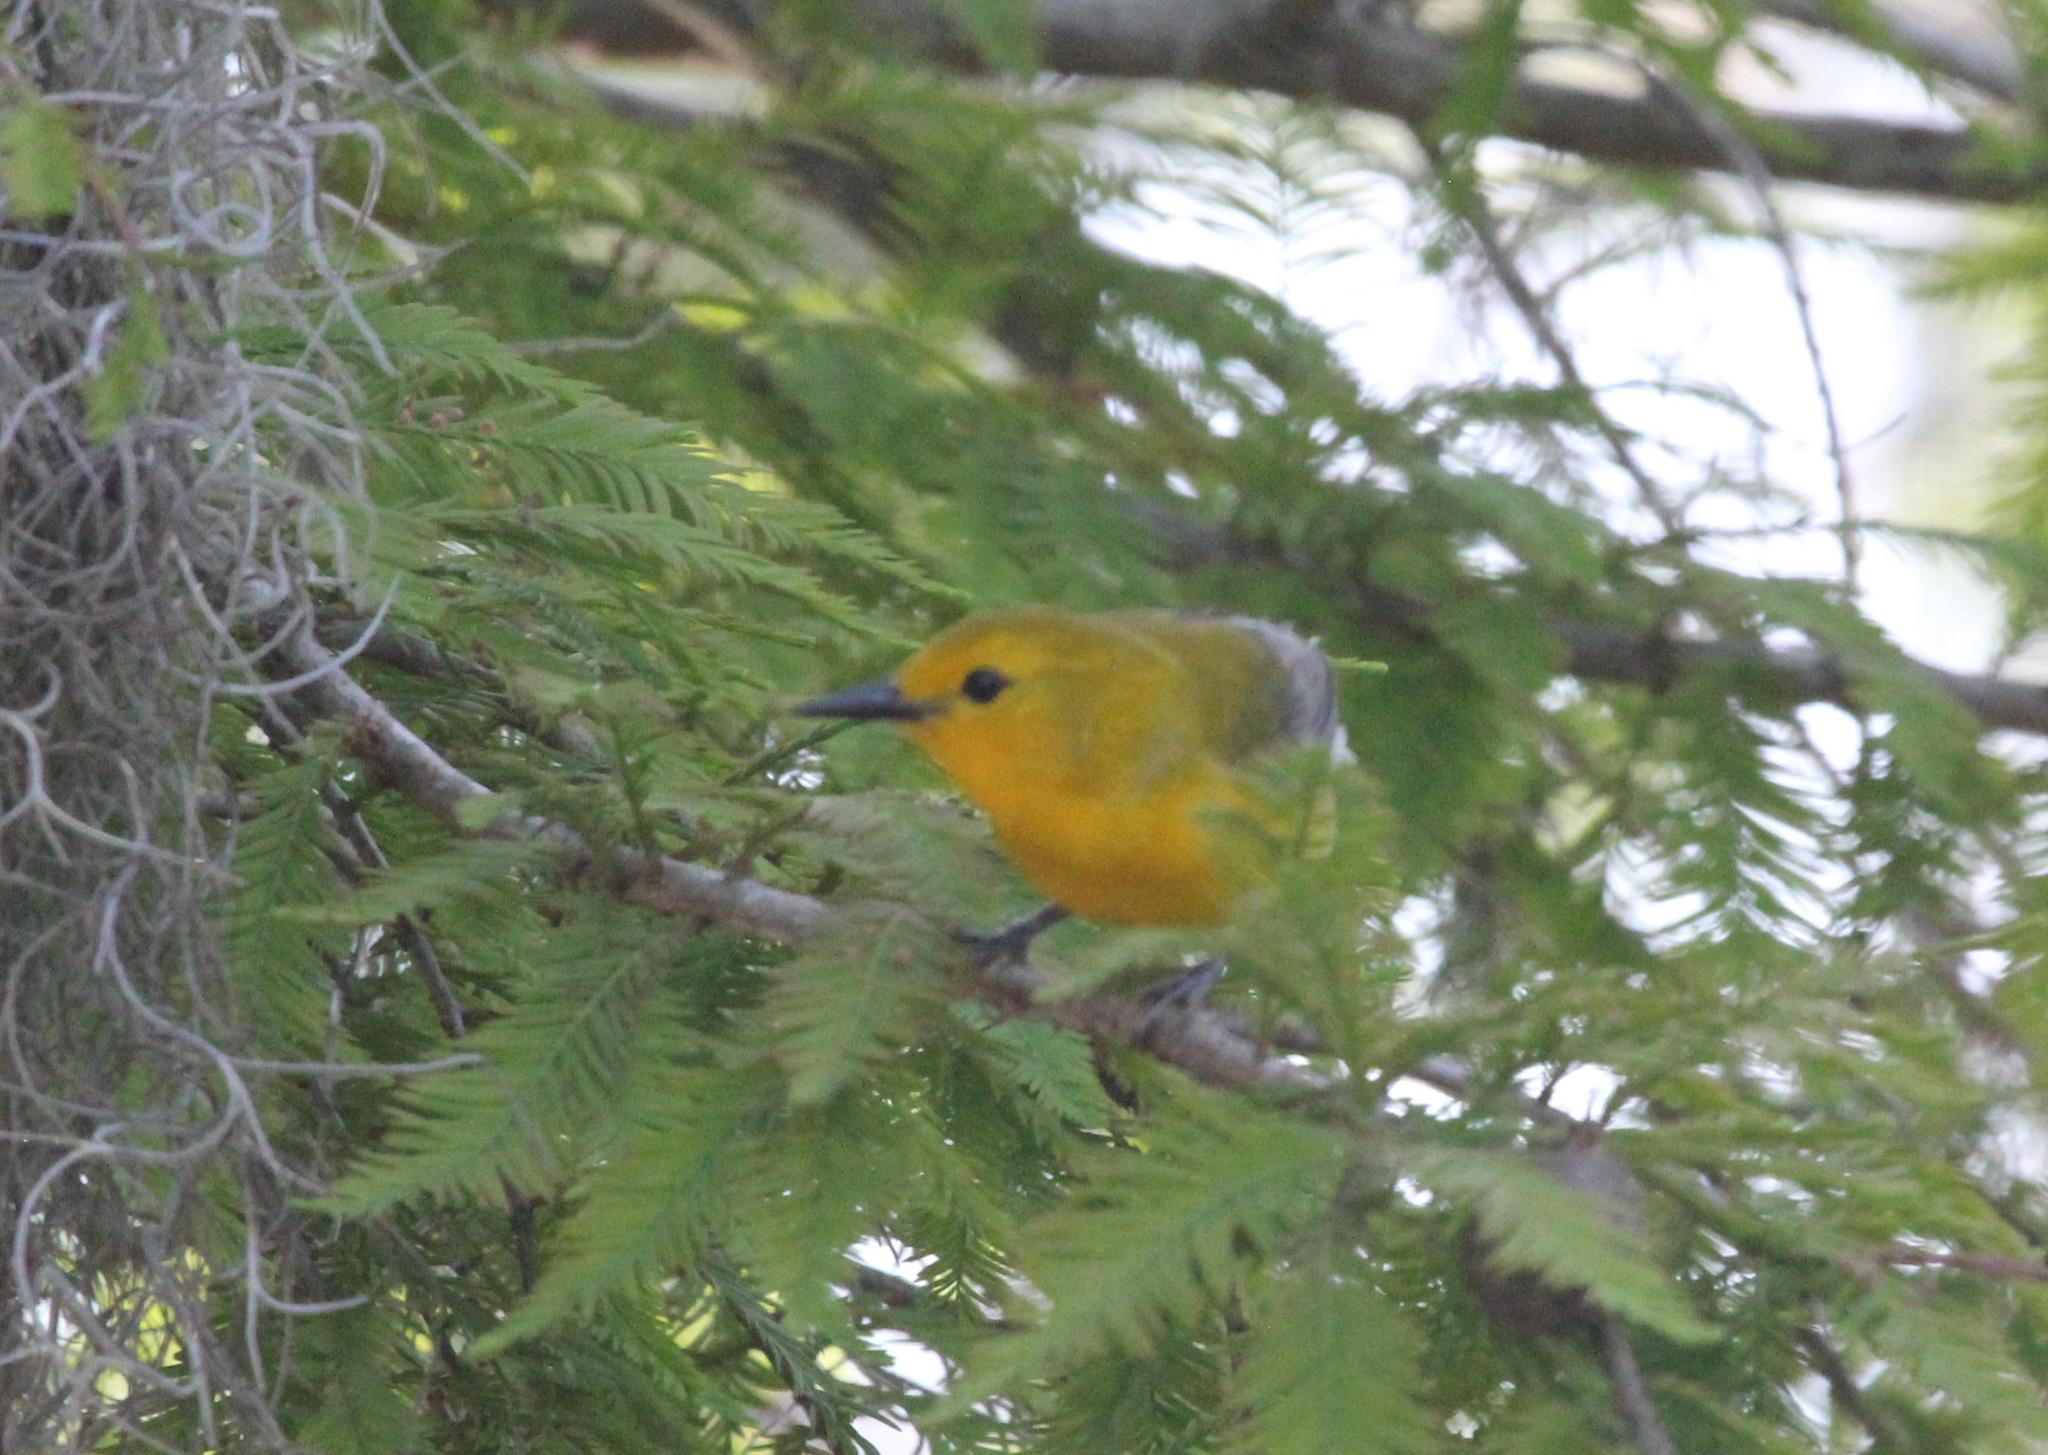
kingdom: Animalia
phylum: Chordata
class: Aves
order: Passeriformes
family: Parulidae
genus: Protonotaria
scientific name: Protonotaria citrea
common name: Prothonotary warbler
